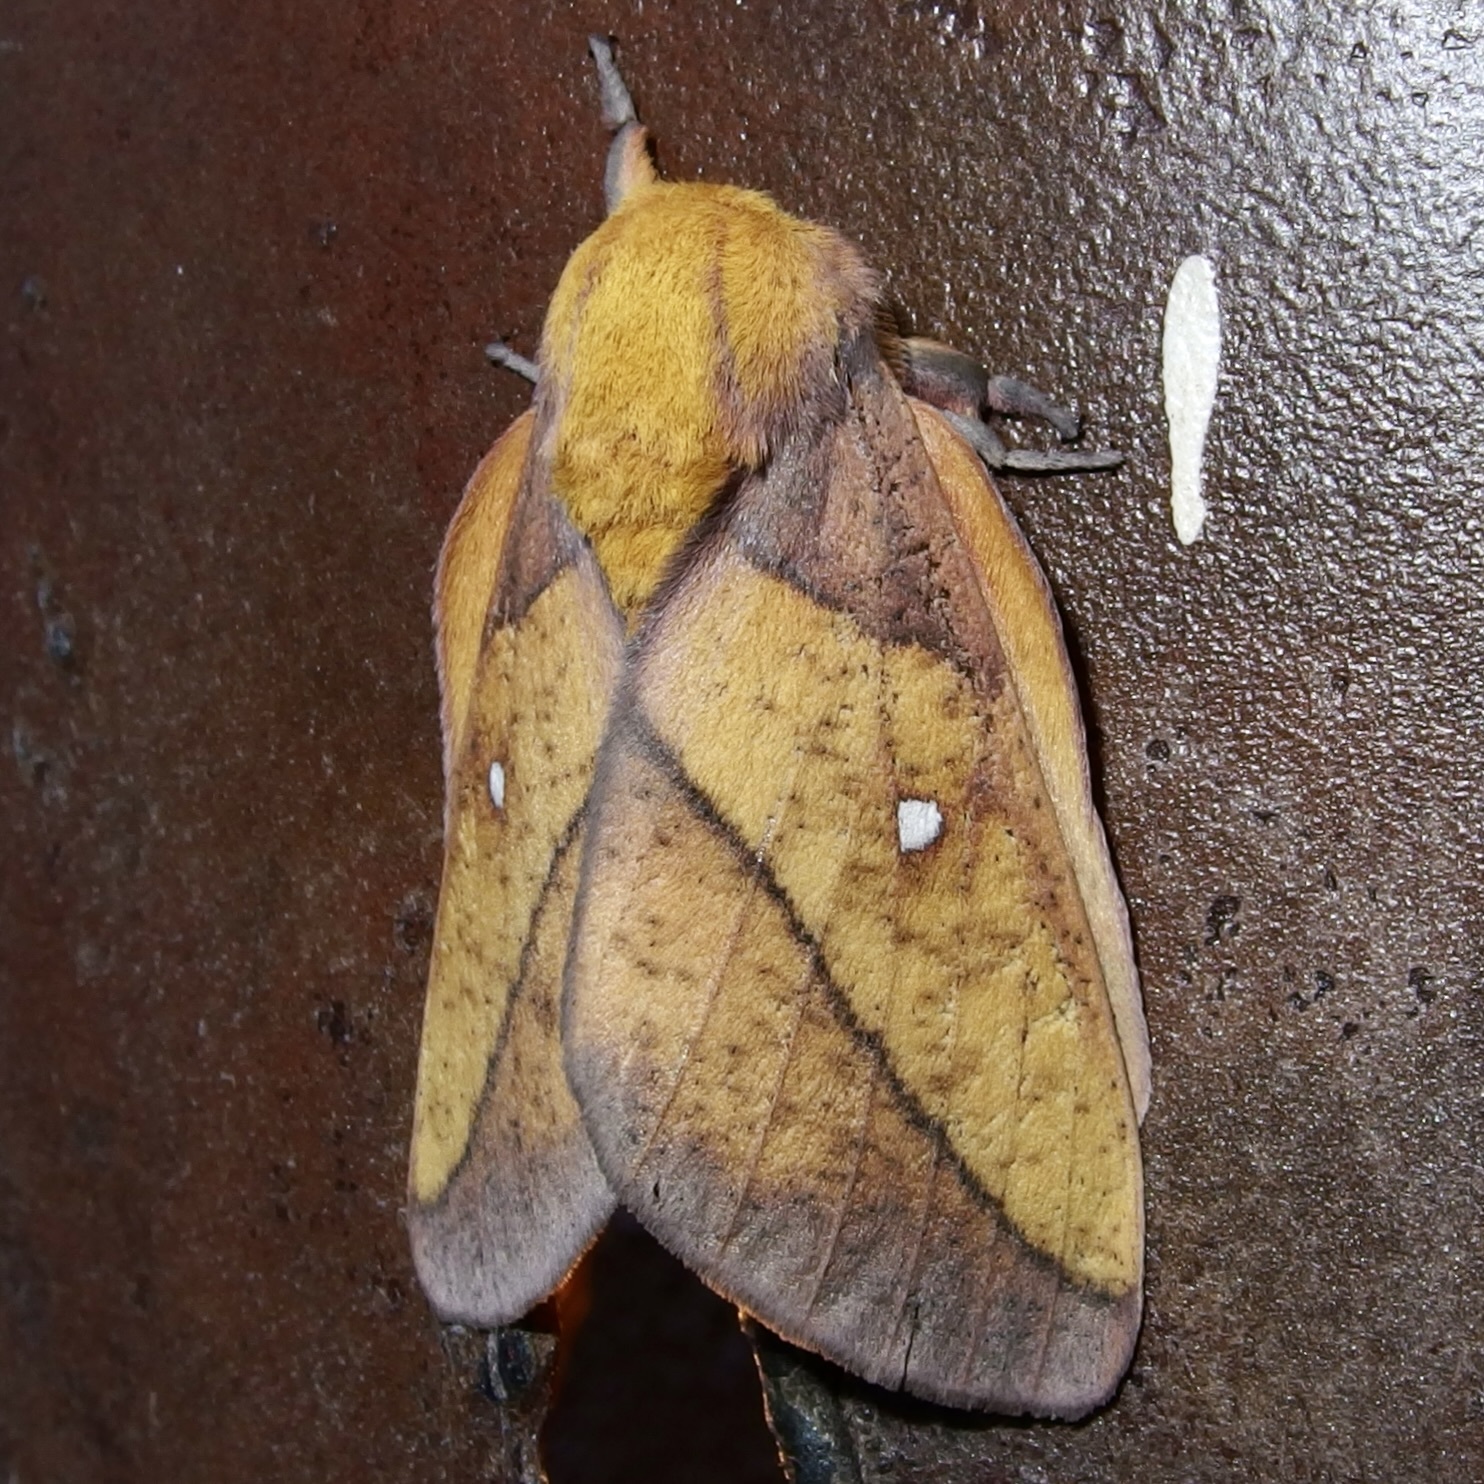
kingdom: Animalia
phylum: Arthropoda
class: Insecta
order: Lepidoptera
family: Saturniidae
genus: Syssphinx
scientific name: Syssphinx montana
